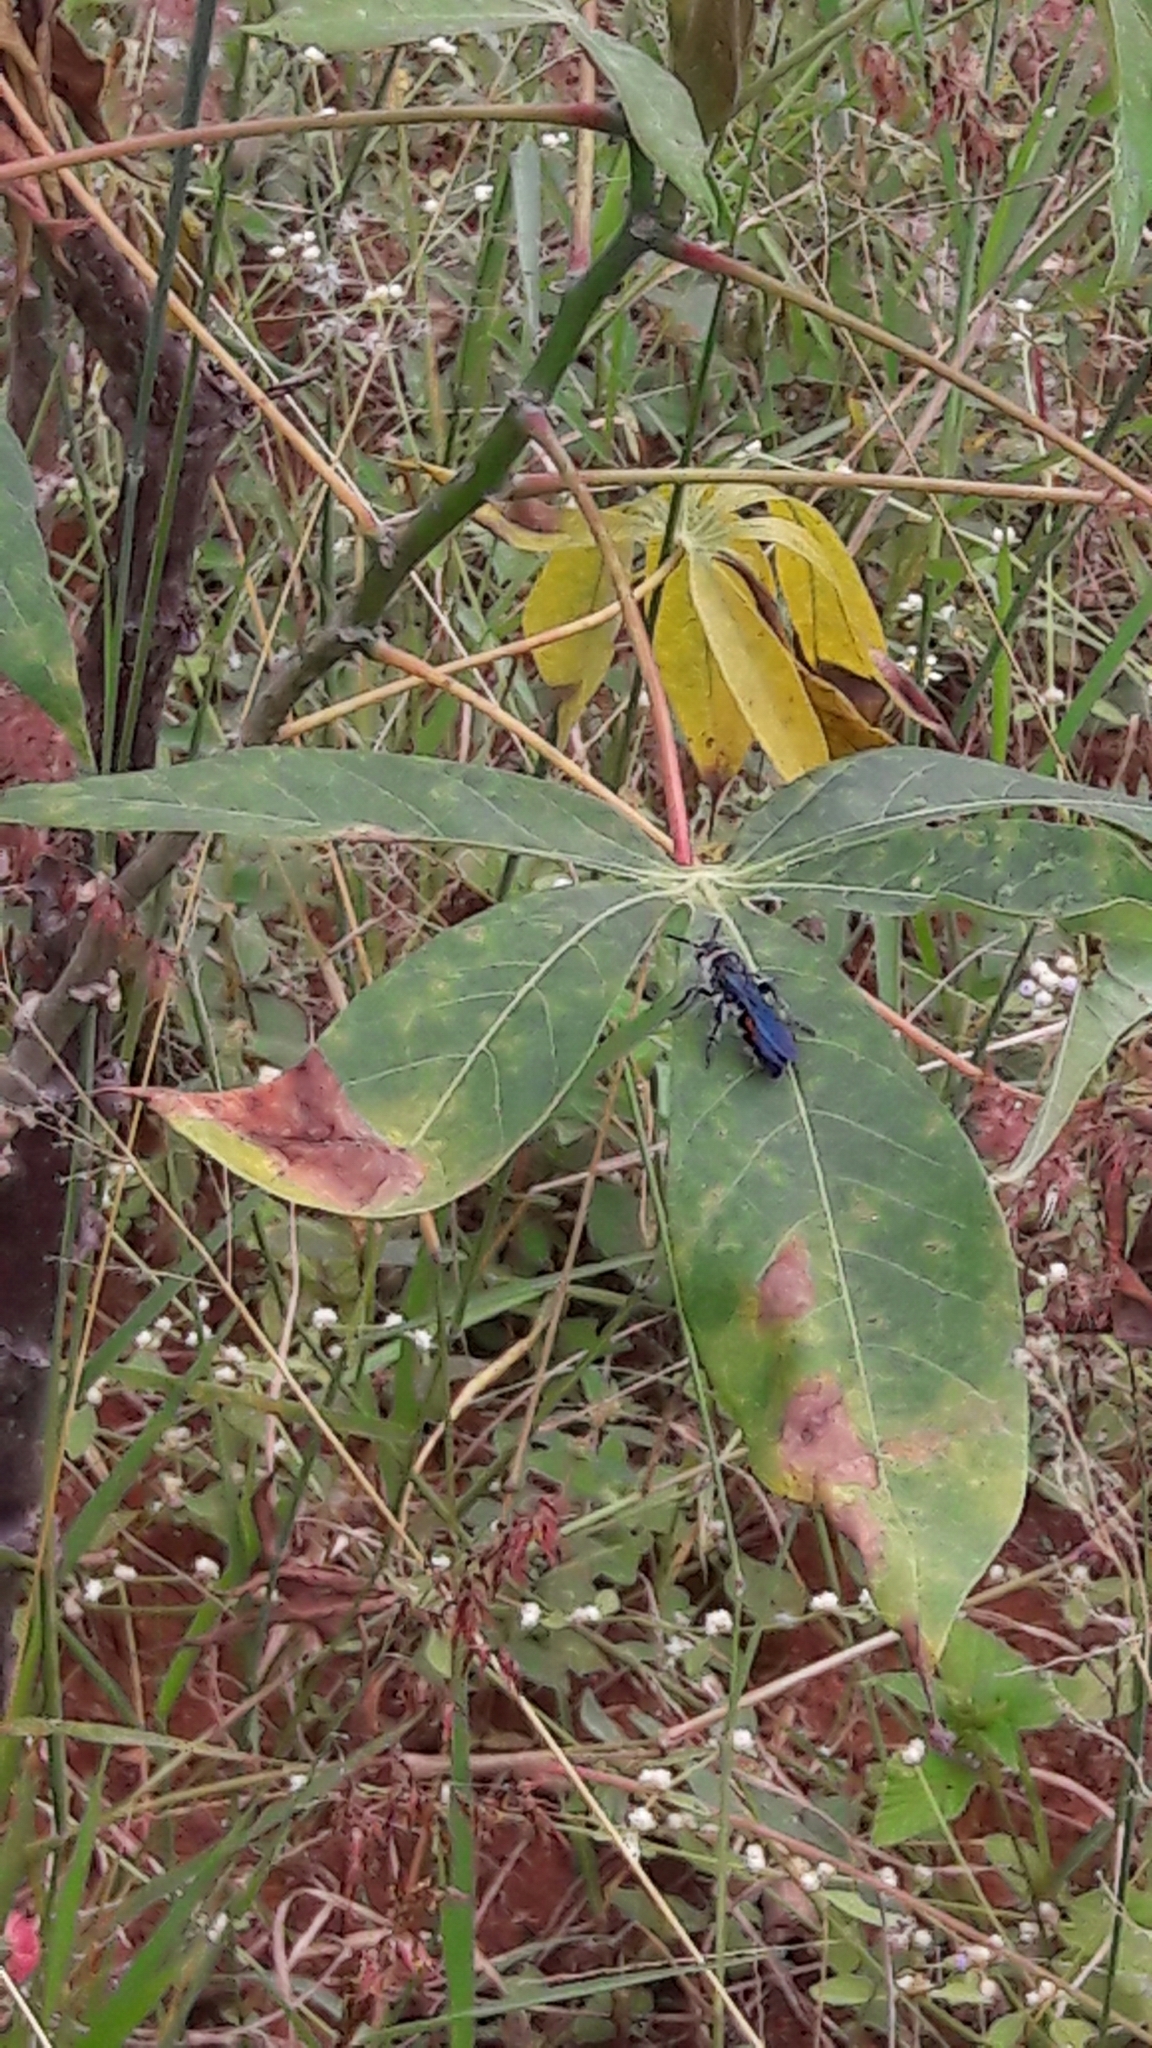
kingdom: Animalia
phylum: Arthropoda
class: Insecta
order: Hymenoptera
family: Scoliidae
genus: Dielis
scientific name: Dielis dorsata
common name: Scoliid wasp
